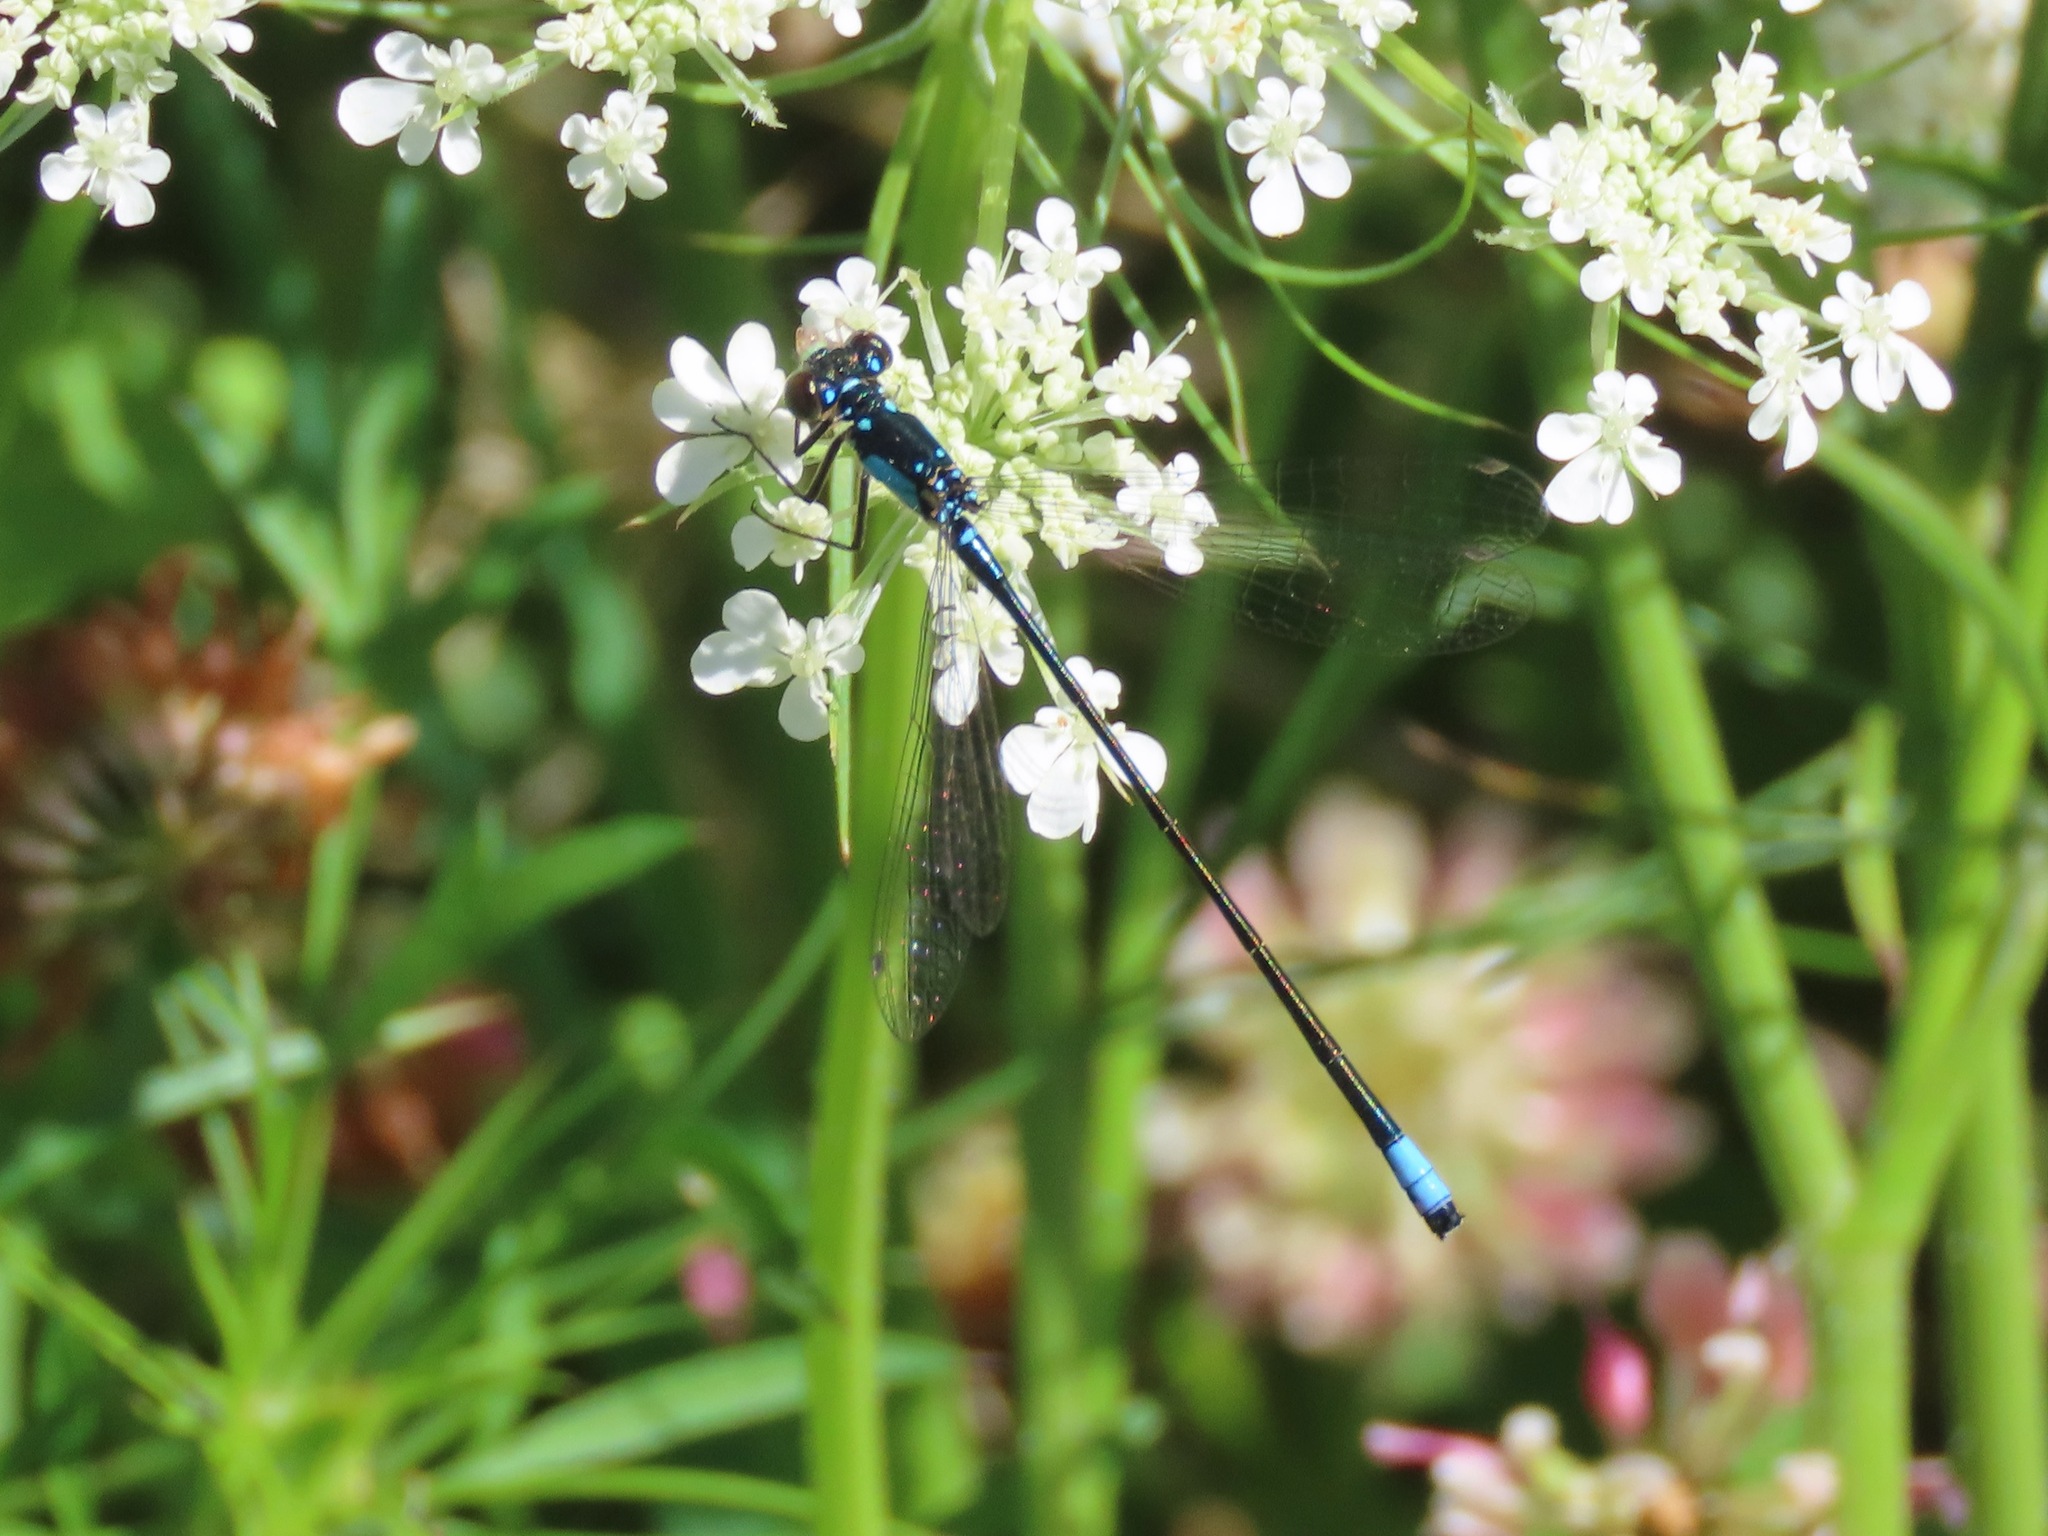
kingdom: Animalia
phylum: Arthropoda
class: Insecta
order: Odonata
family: Coenagrionidae
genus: Ischnura
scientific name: Ischnura cervula
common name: Pacific forktail
